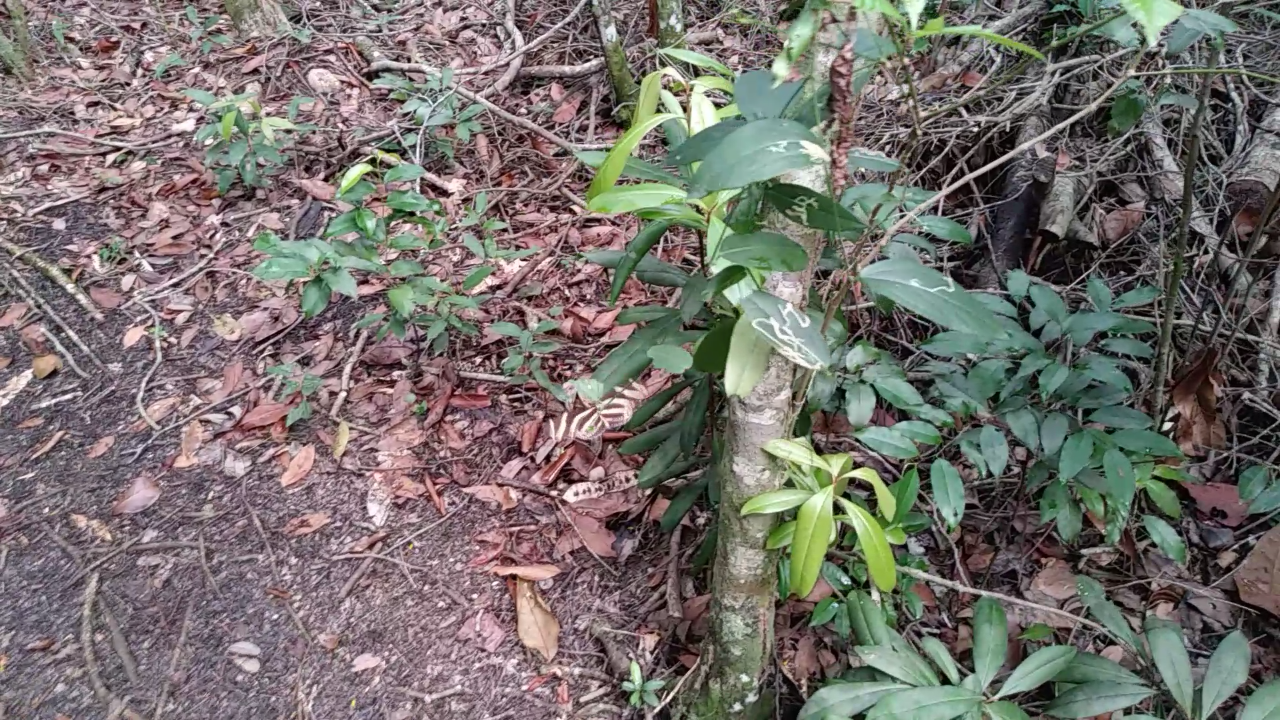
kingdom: Animalia
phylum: Arthropoda
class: Insecta
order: Lepidoptera
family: Nymphalidae
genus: Heliconius
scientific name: Heliconius charithonia
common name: Zebra long wing
